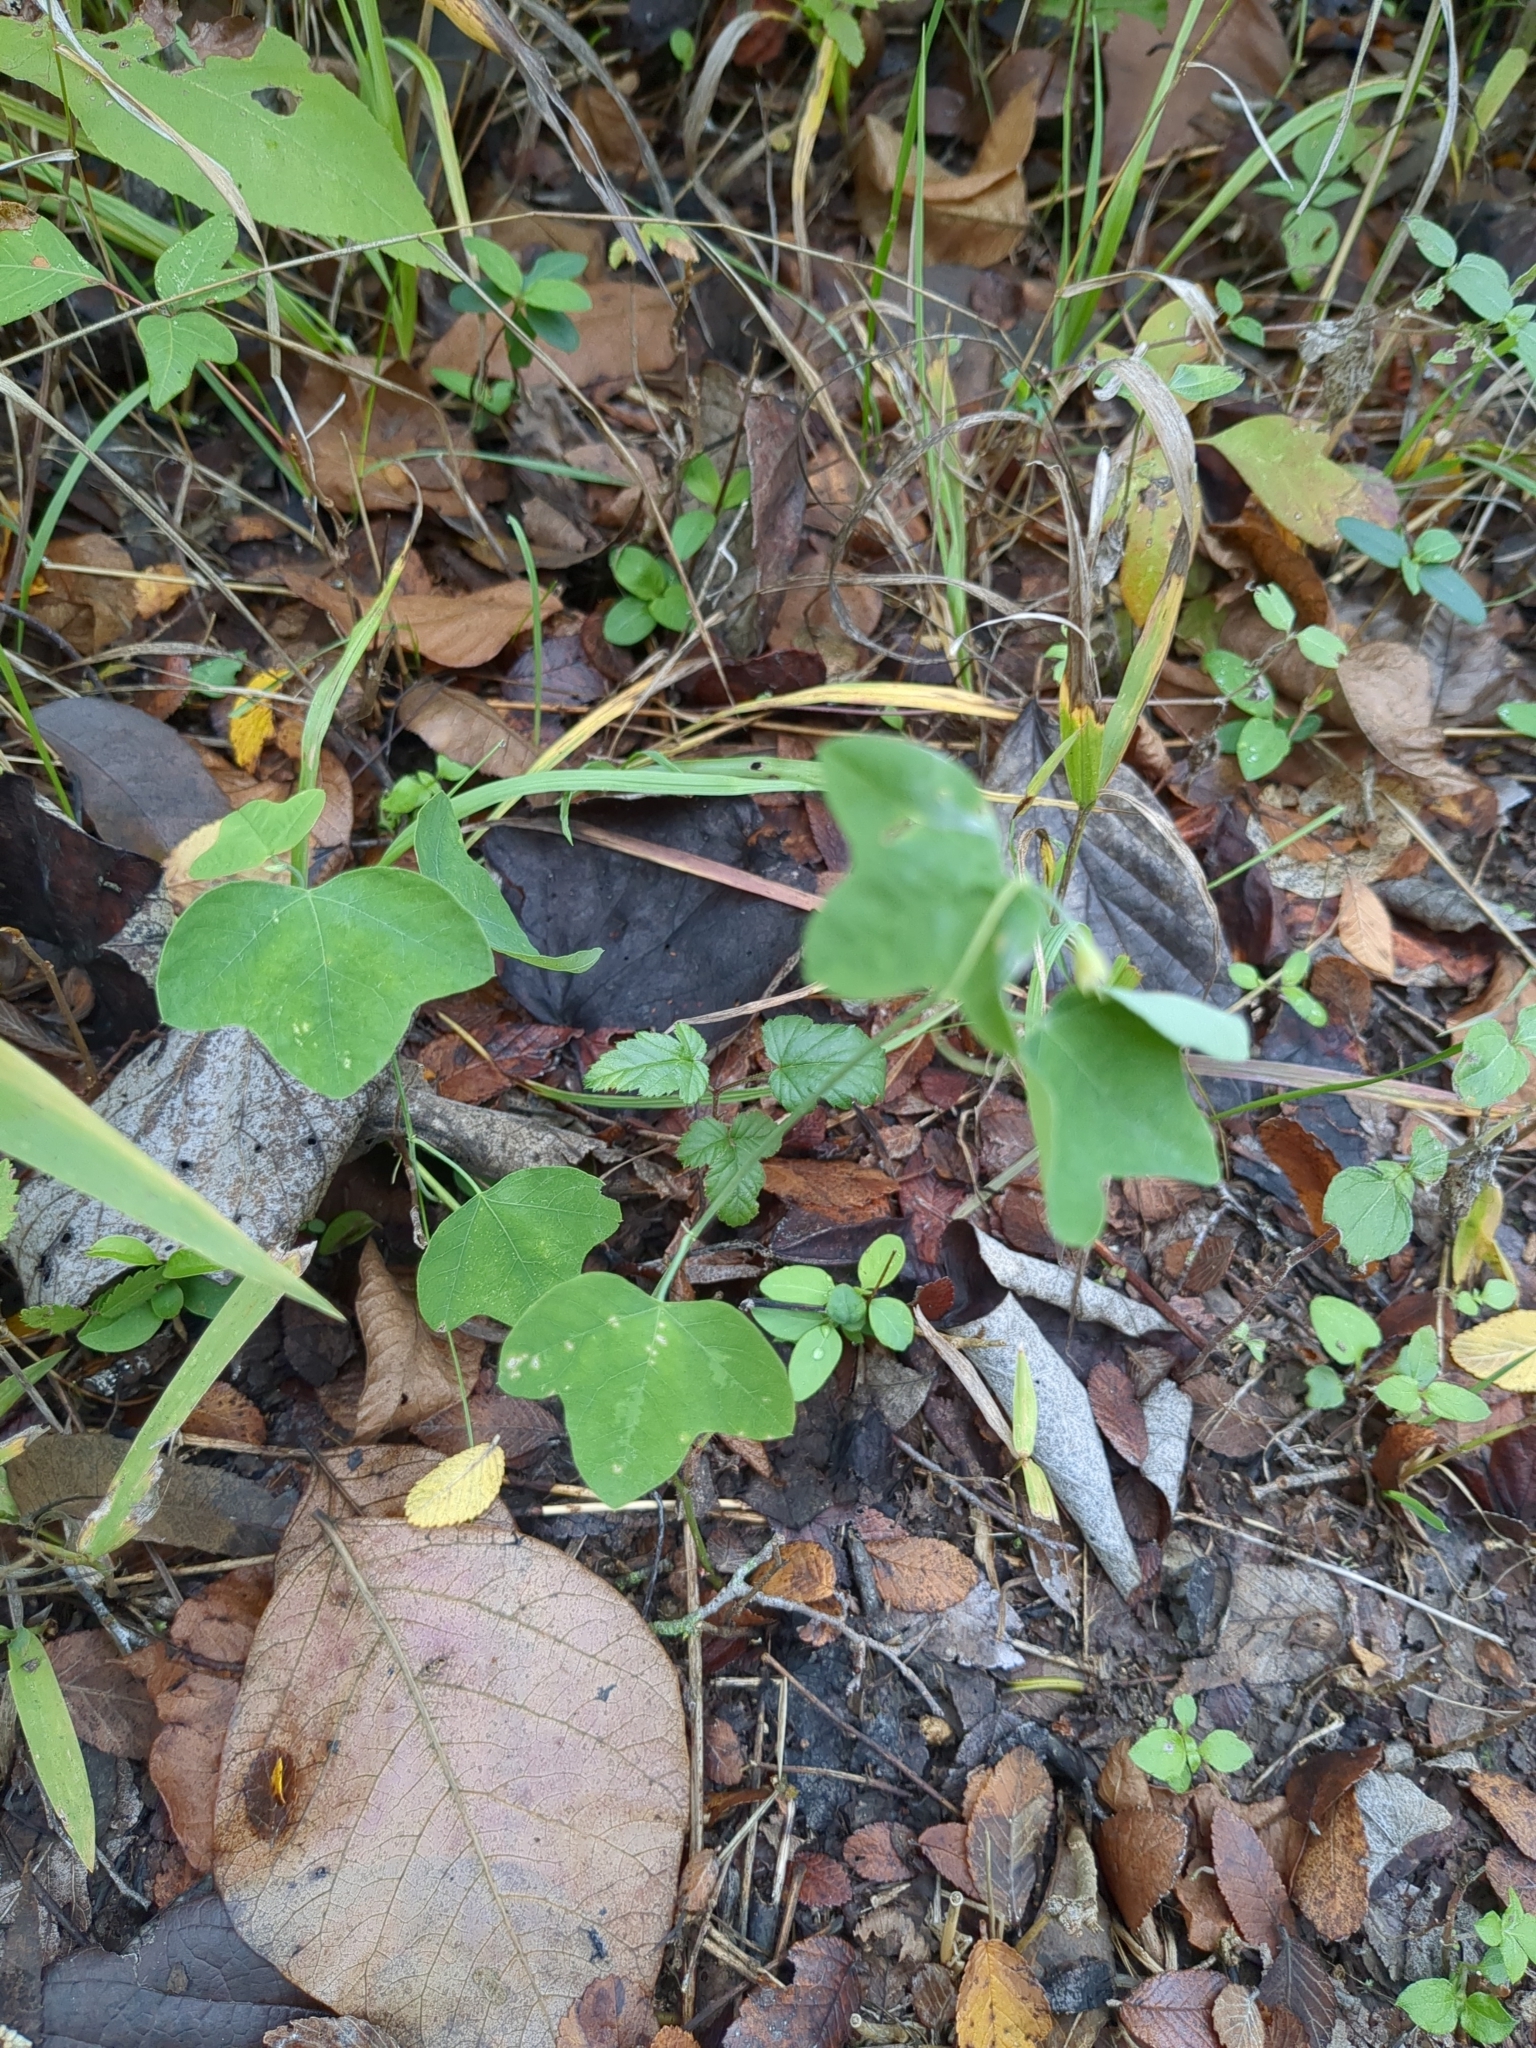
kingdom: Plantae
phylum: Tracheophyta
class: Magnoliopsida
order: Malpighiales
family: Passifloraceae
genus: Passiflora
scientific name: Passiflora lutea
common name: Yellow passionflower
